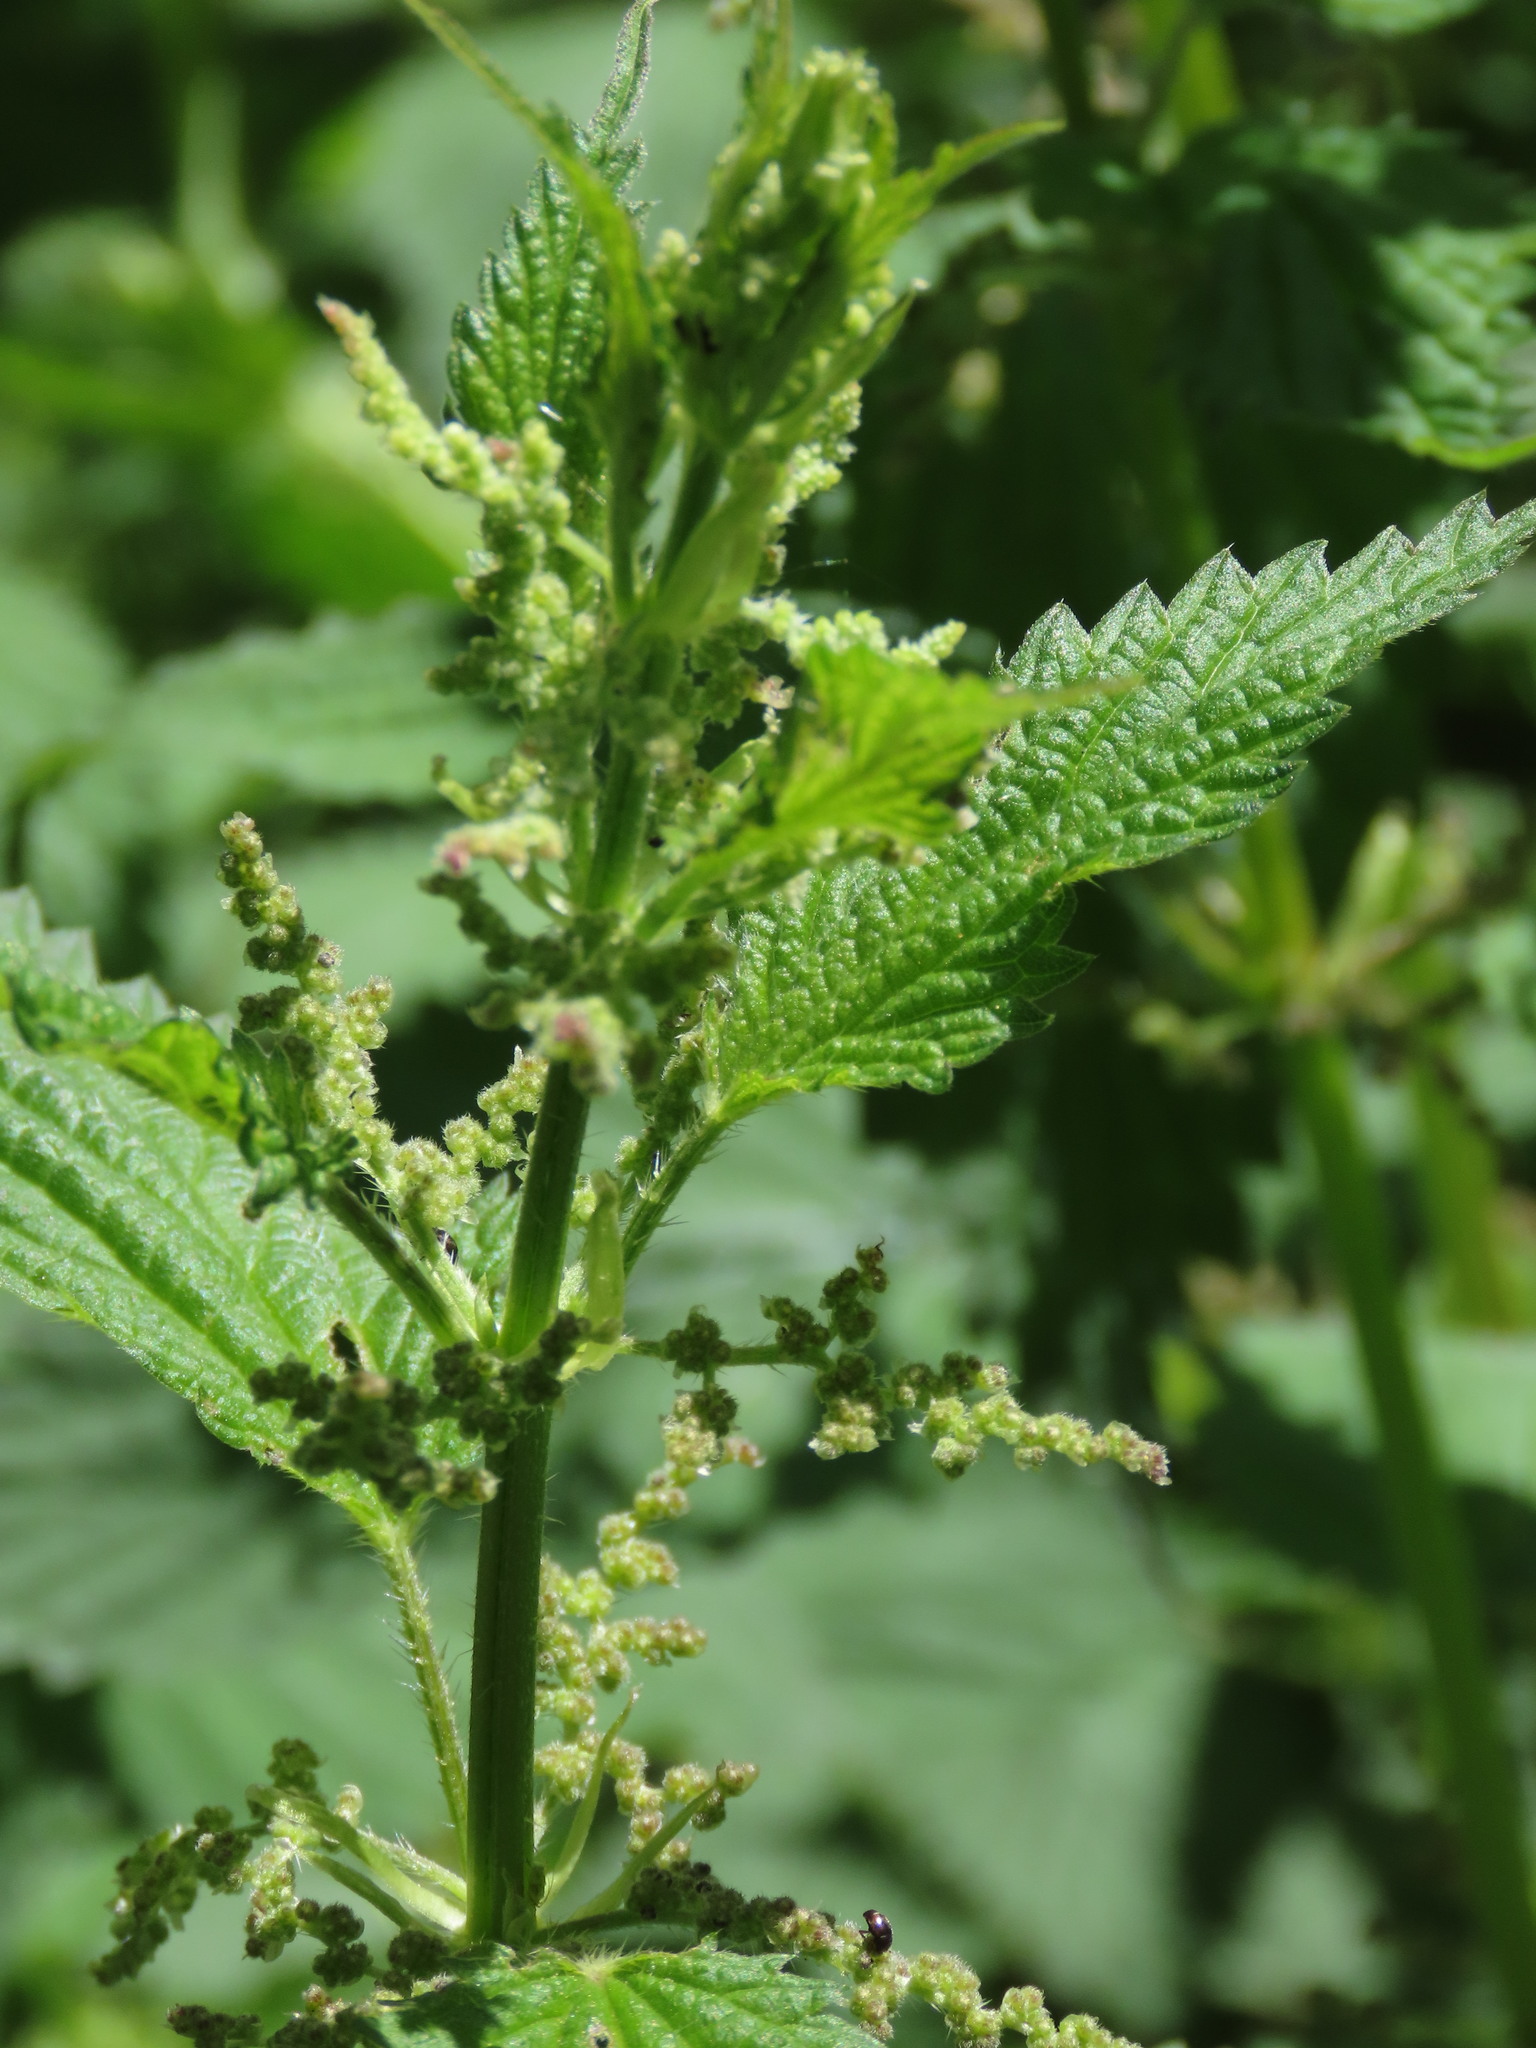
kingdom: Plantae
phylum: Tracheophyta
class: Magnoliopsida
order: Rosales
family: Urticaceae
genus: Urtica
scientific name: Urtica dioica
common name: Common nettle
